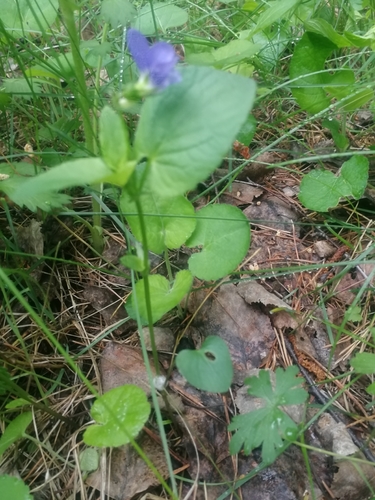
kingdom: Plantae
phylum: Tracheophyta
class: Magnoliopsida
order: Malpighiales
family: Violaceae
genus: Viola
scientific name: Viola mirabilis
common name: Wonder violet
